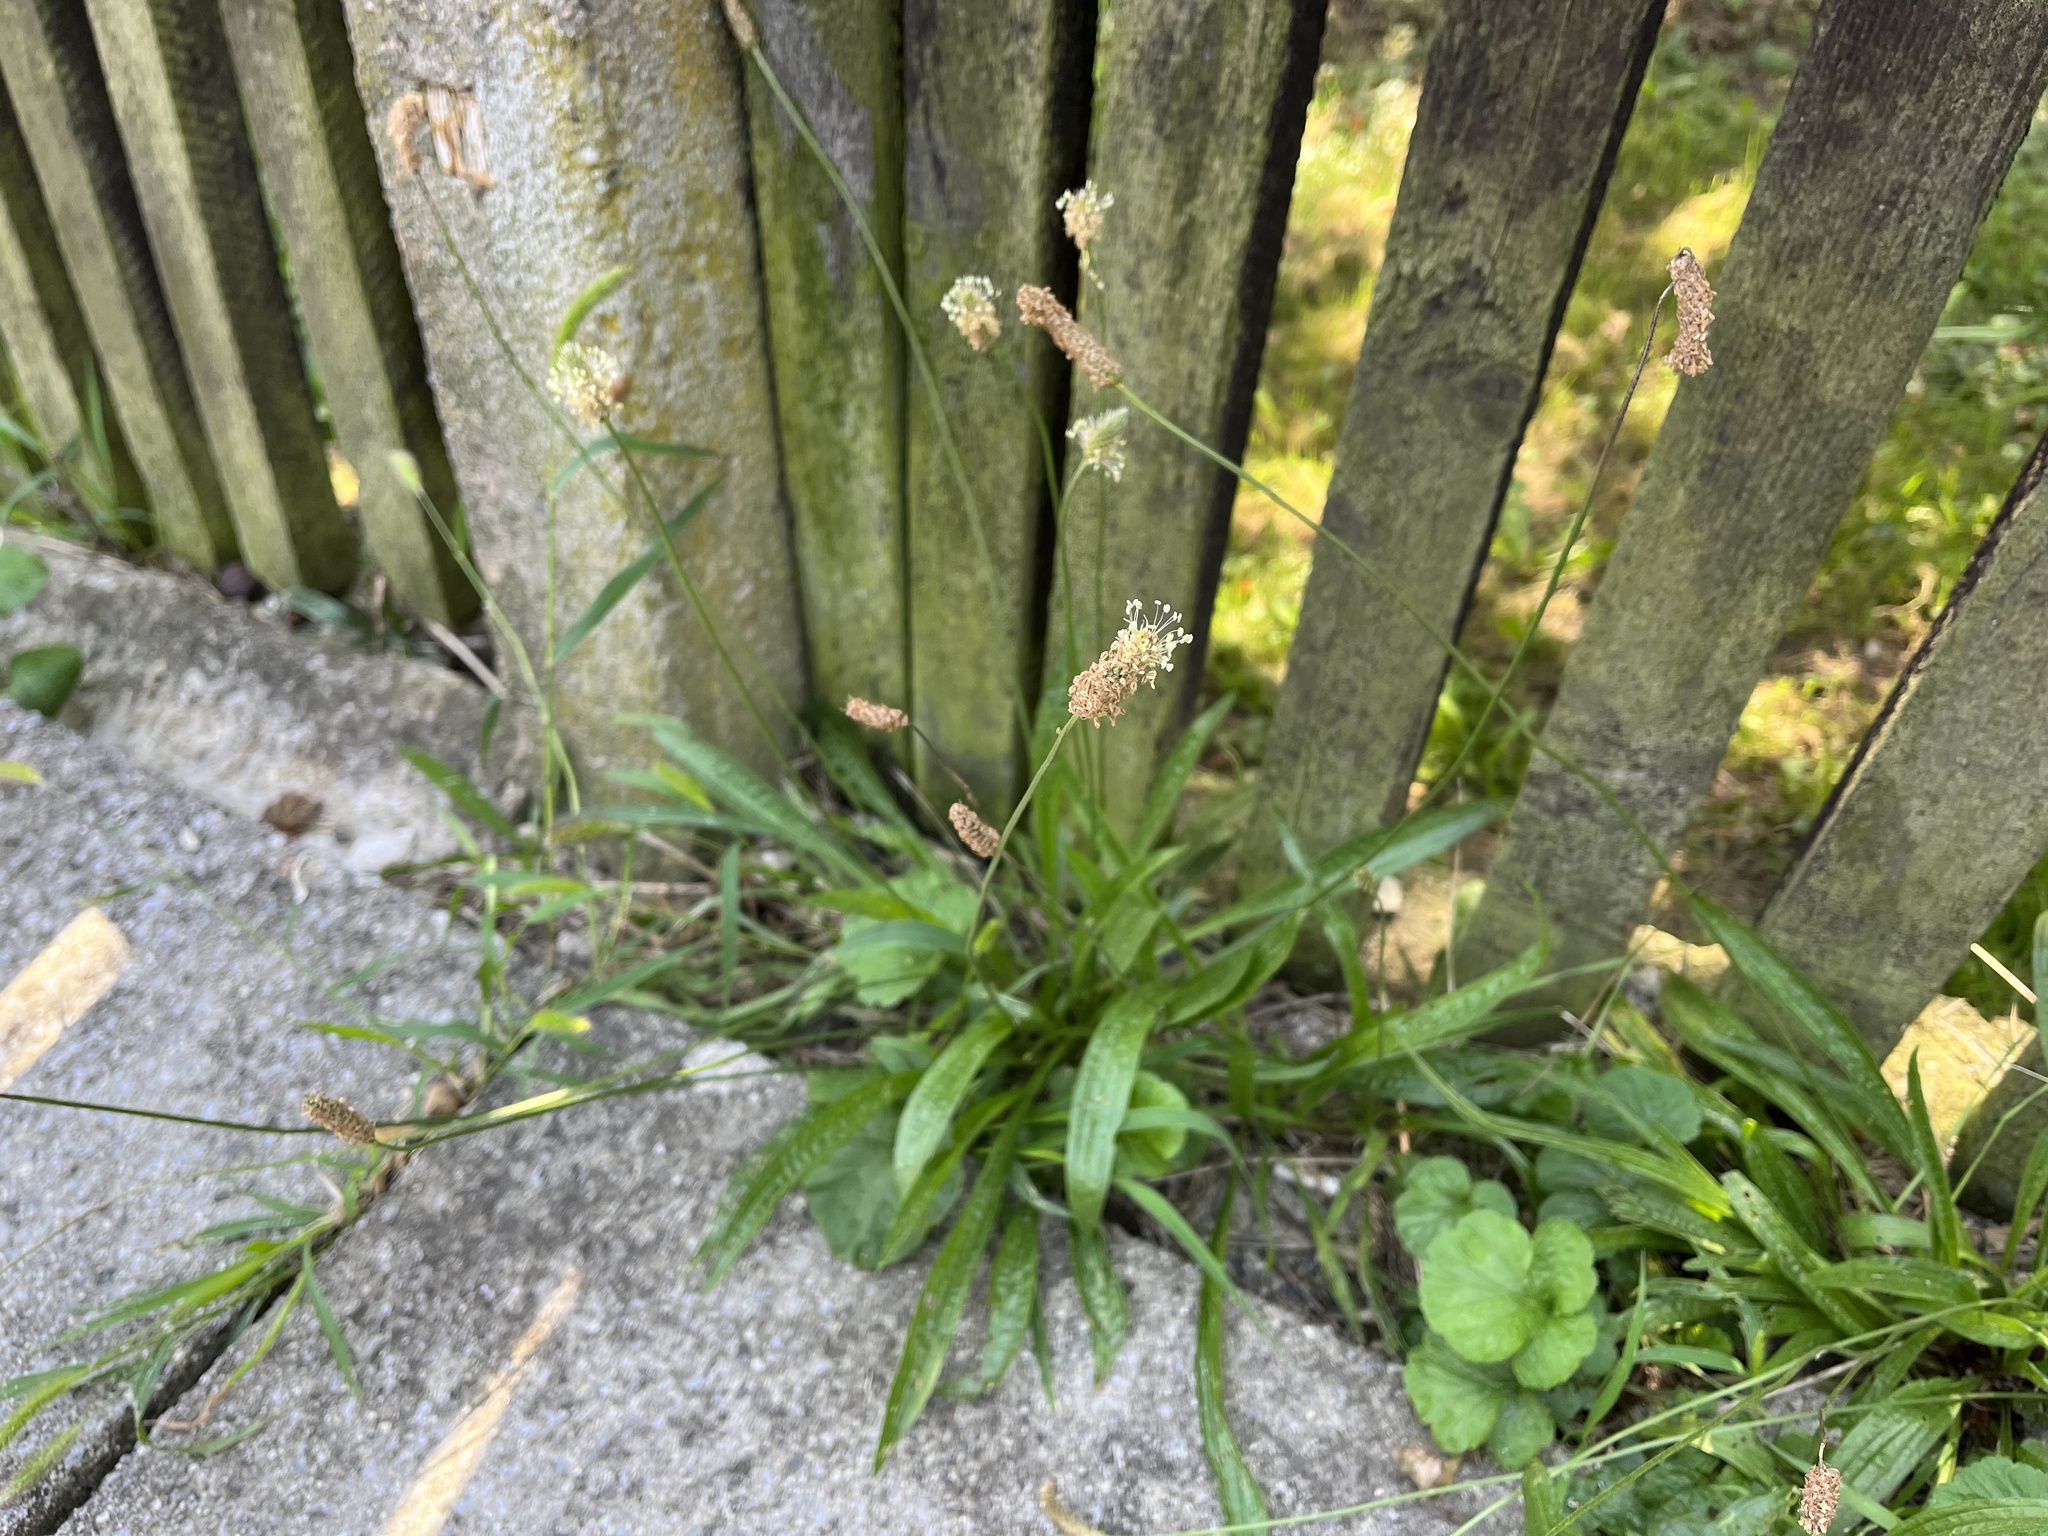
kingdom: Plantae
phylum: Tracheophyta
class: Magnoliopsida
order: Lamiales
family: Plantaginaceae
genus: Plantago
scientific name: Plantago lanceolata
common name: Ribwort plantain
